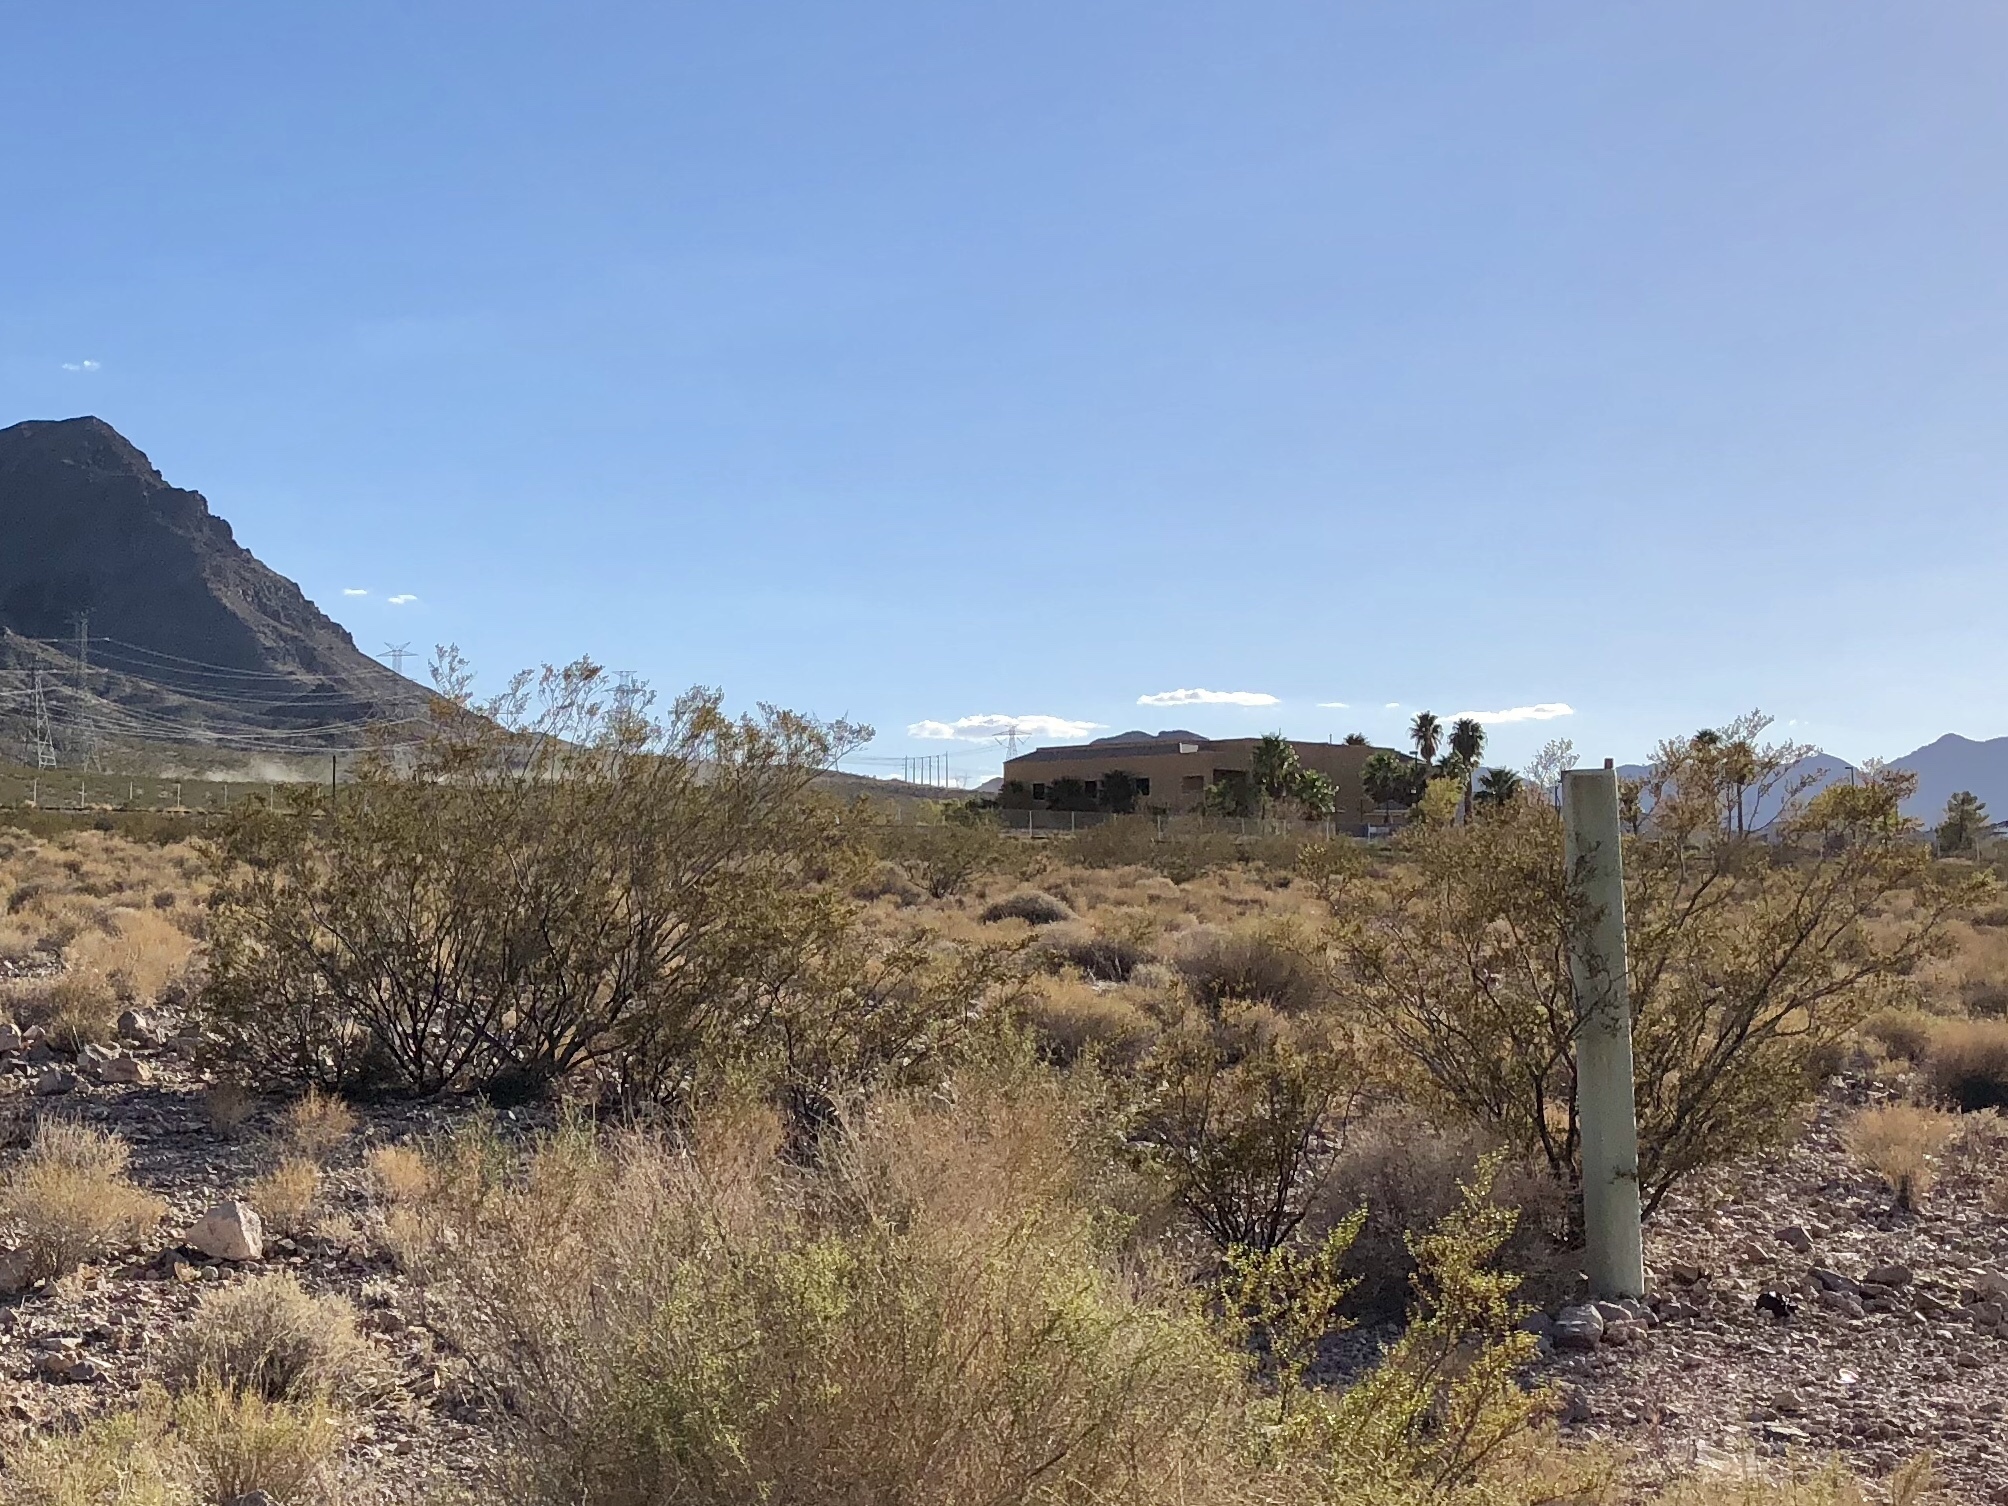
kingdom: Plantae
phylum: Tracheophyta
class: Magnoliopsida
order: Zygophyllales
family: Zygophyllaceae
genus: Larrea
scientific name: Larrea tridentata
